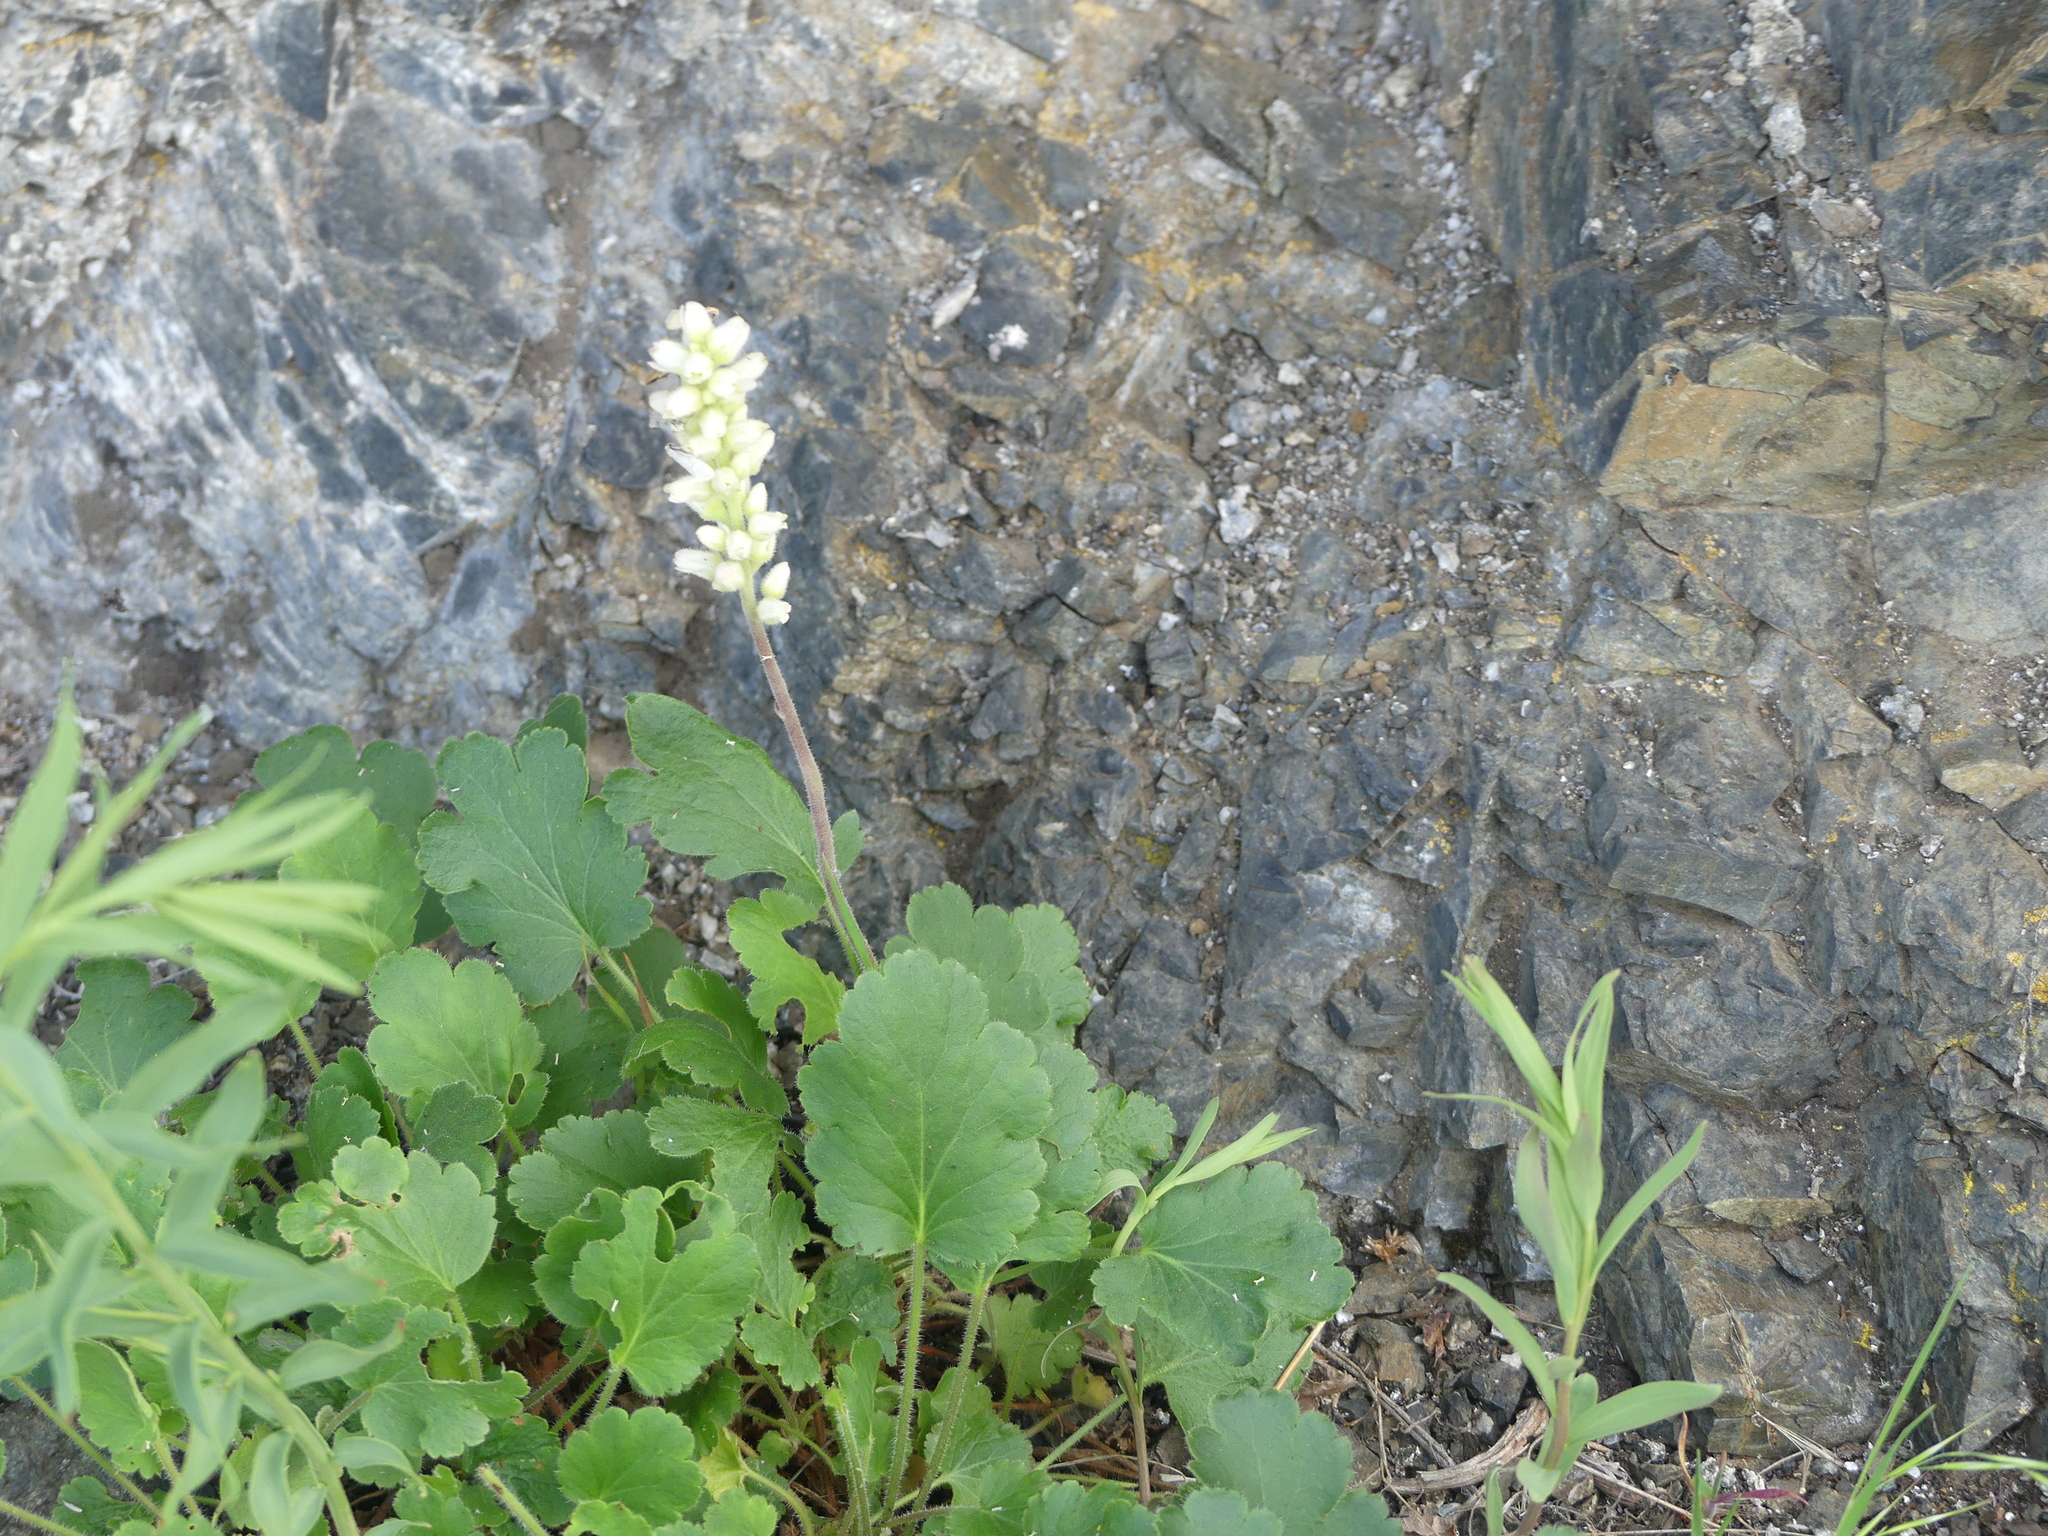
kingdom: Plantae
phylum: Tracheophyta
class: Magnoliopsida
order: Saxifragales
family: Saxifragaceae
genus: Heuchera
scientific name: Heuchera cylindrica
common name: Mat alumroot
